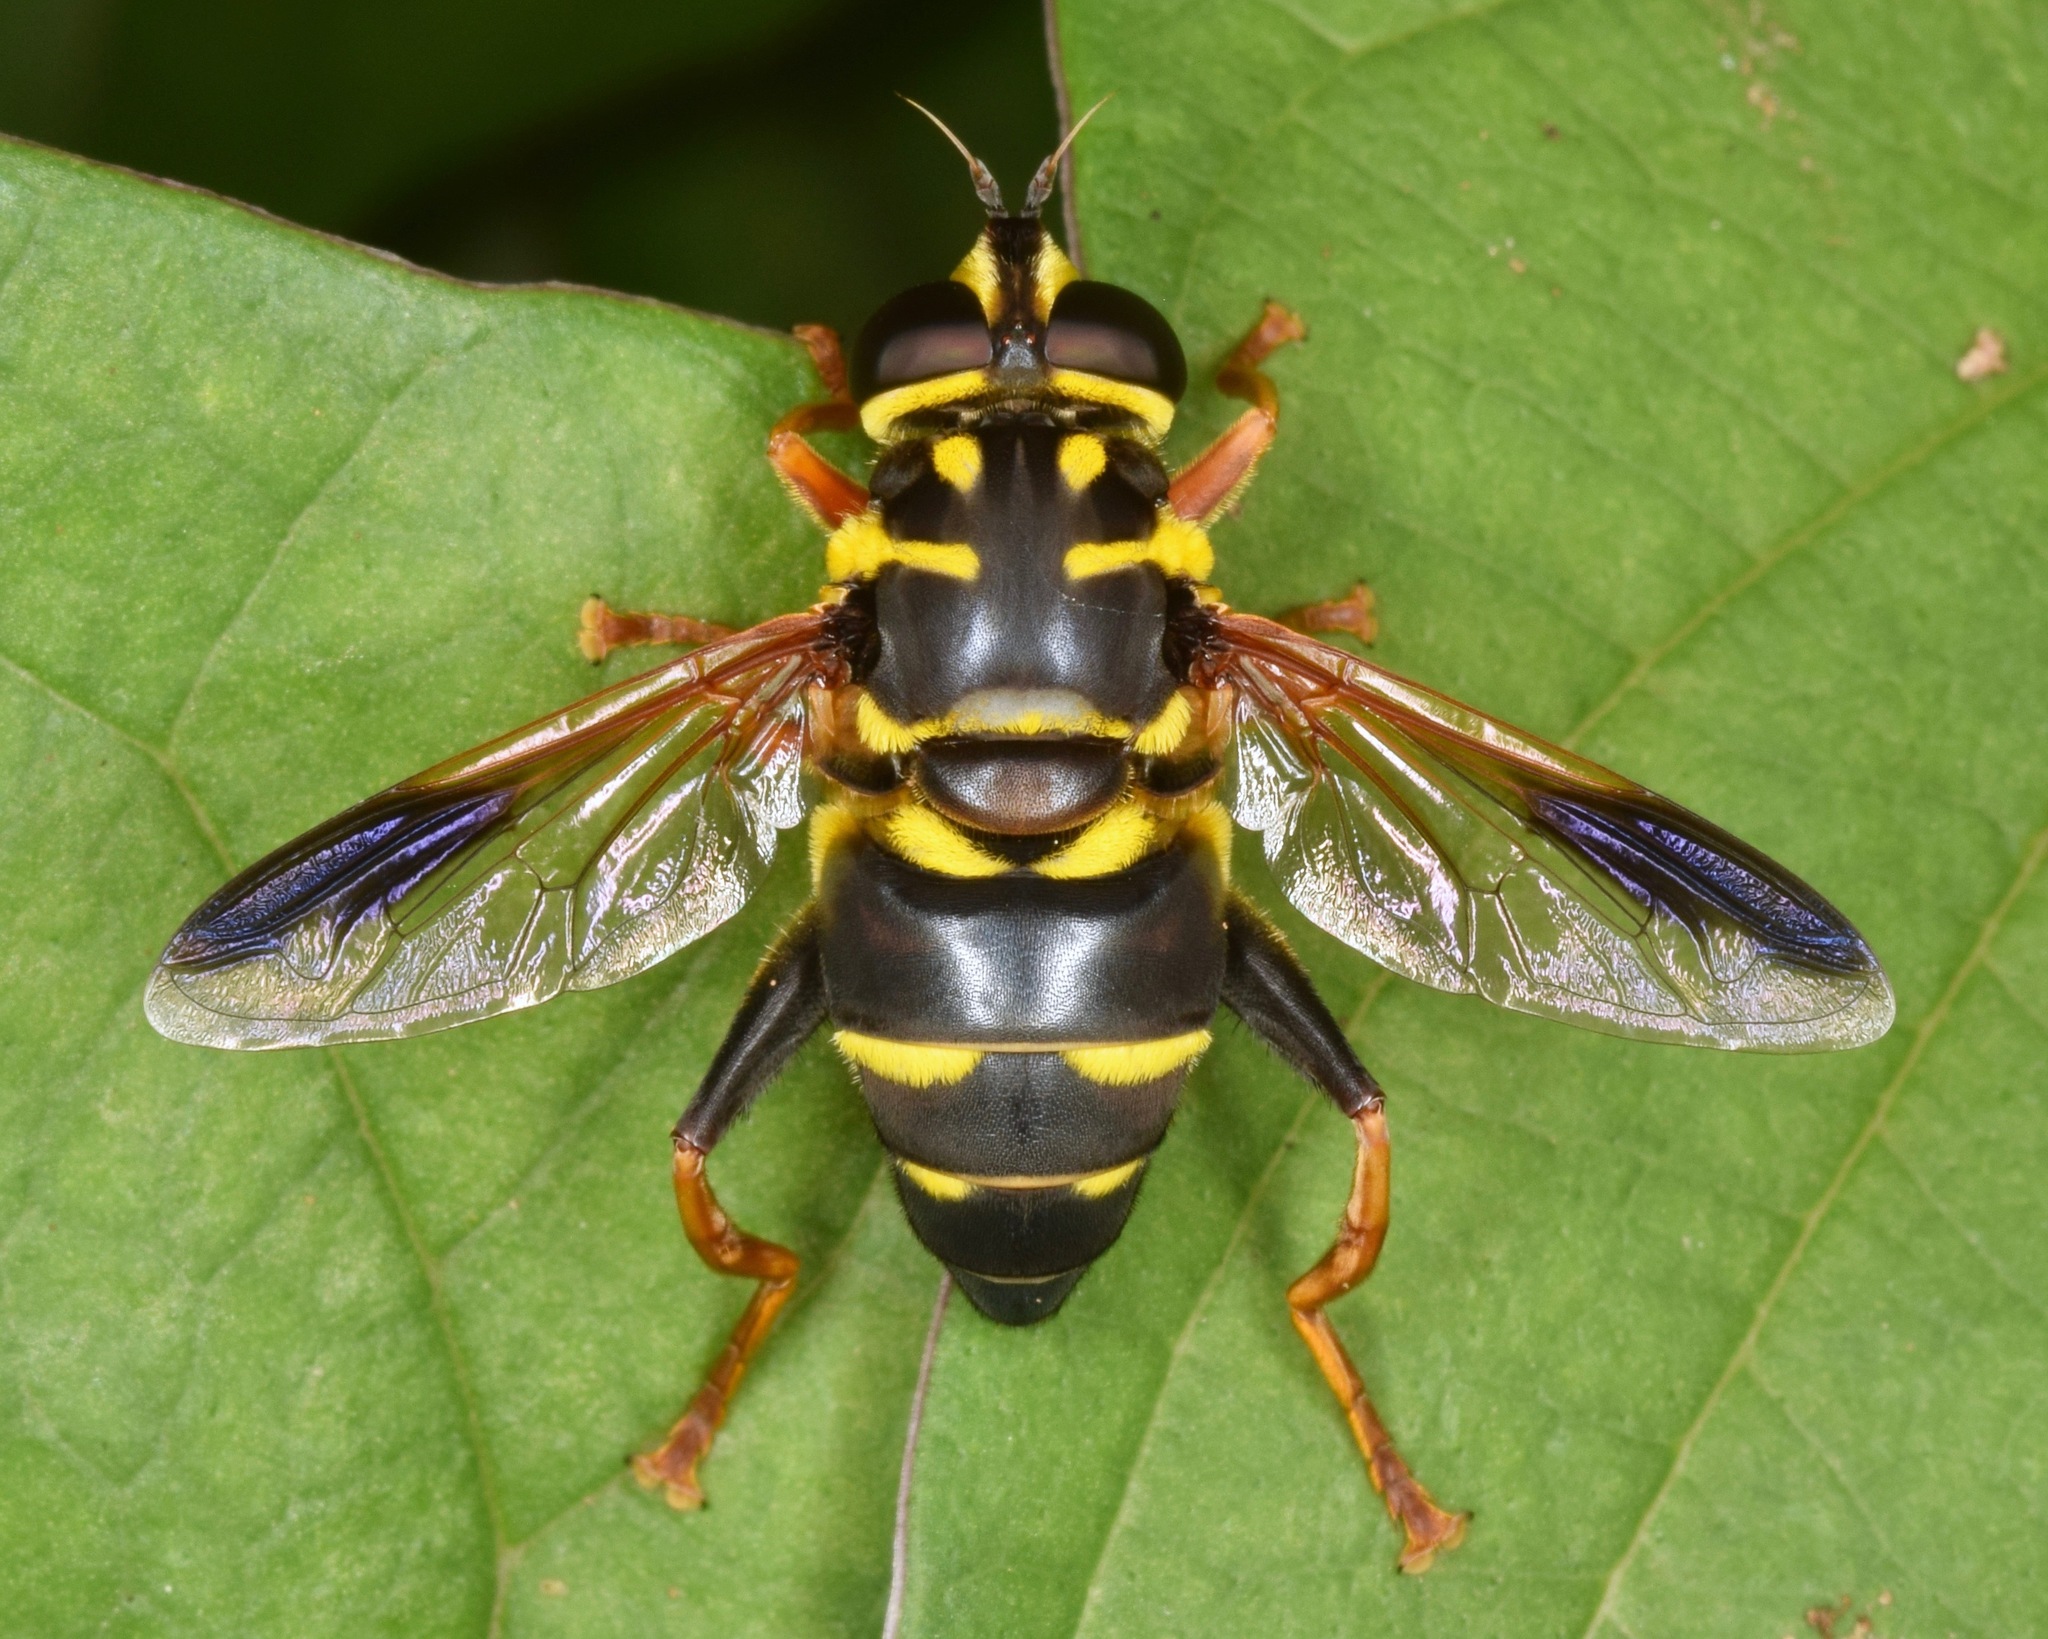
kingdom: Animalia
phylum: Arthropoda
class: Insecta
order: Diptera
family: Syrphidae
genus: Meromacrus
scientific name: Meromacrus acutus
